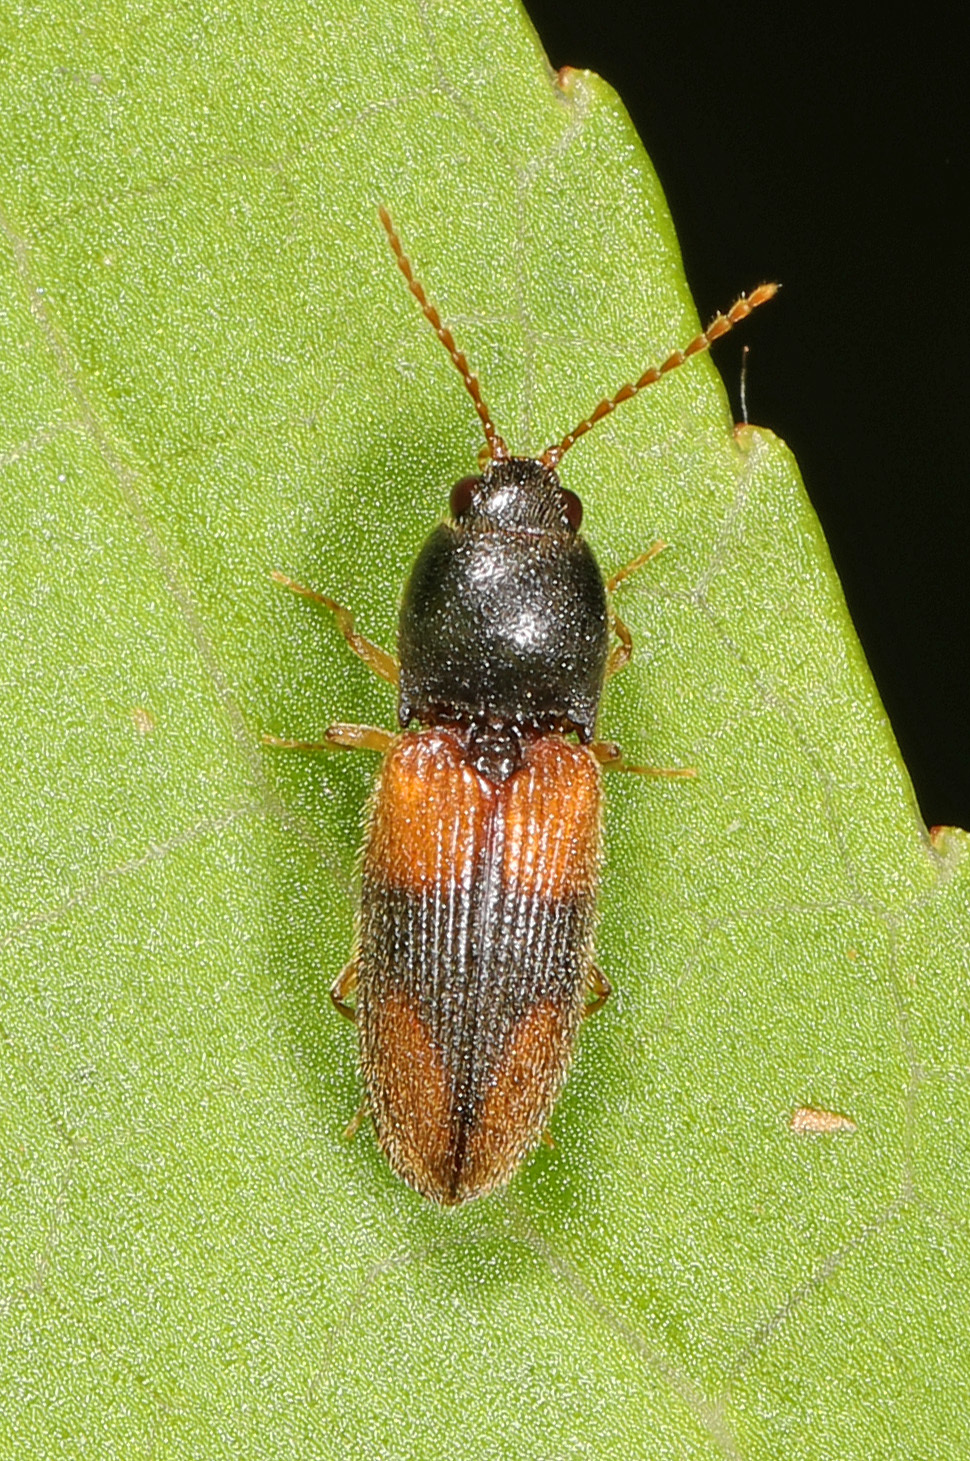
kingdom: Animalia
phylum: Arthropoda
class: Insecta
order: Coleoptera
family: Elateridae
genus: Horistonotus
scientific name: Horistonotus curiatus
